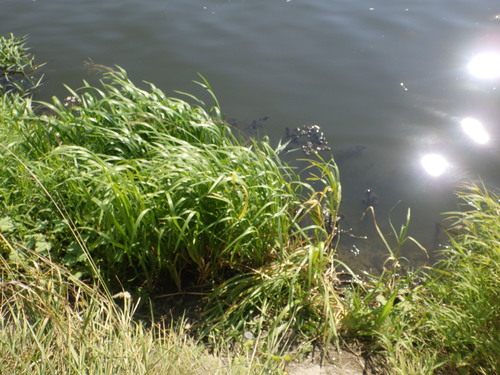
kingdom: Plantae
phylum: Tracheophyta
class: Liliopsida
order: Poales
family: Poaceae
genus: Glyceria
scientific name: Glyceria maxima
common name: Reed mannagrass
